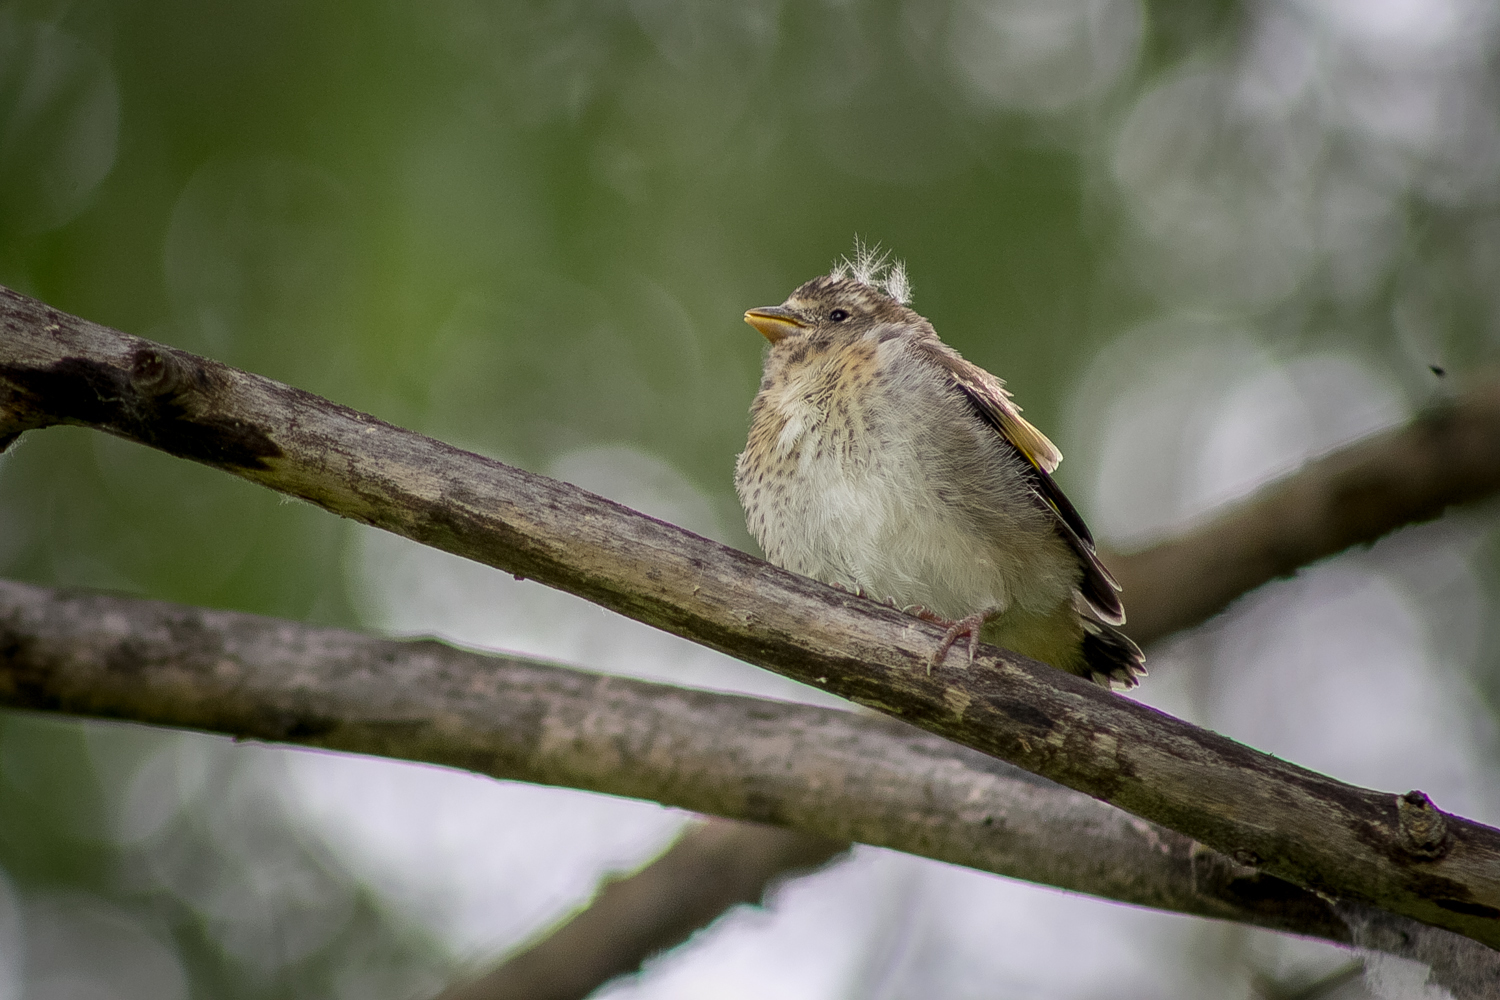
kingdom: Animalia
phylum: Chordata
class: Aves
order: Passeriformes
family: Fringillidae
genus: Carduelis
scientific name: Carduelis carduelis
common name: European goldfinch
